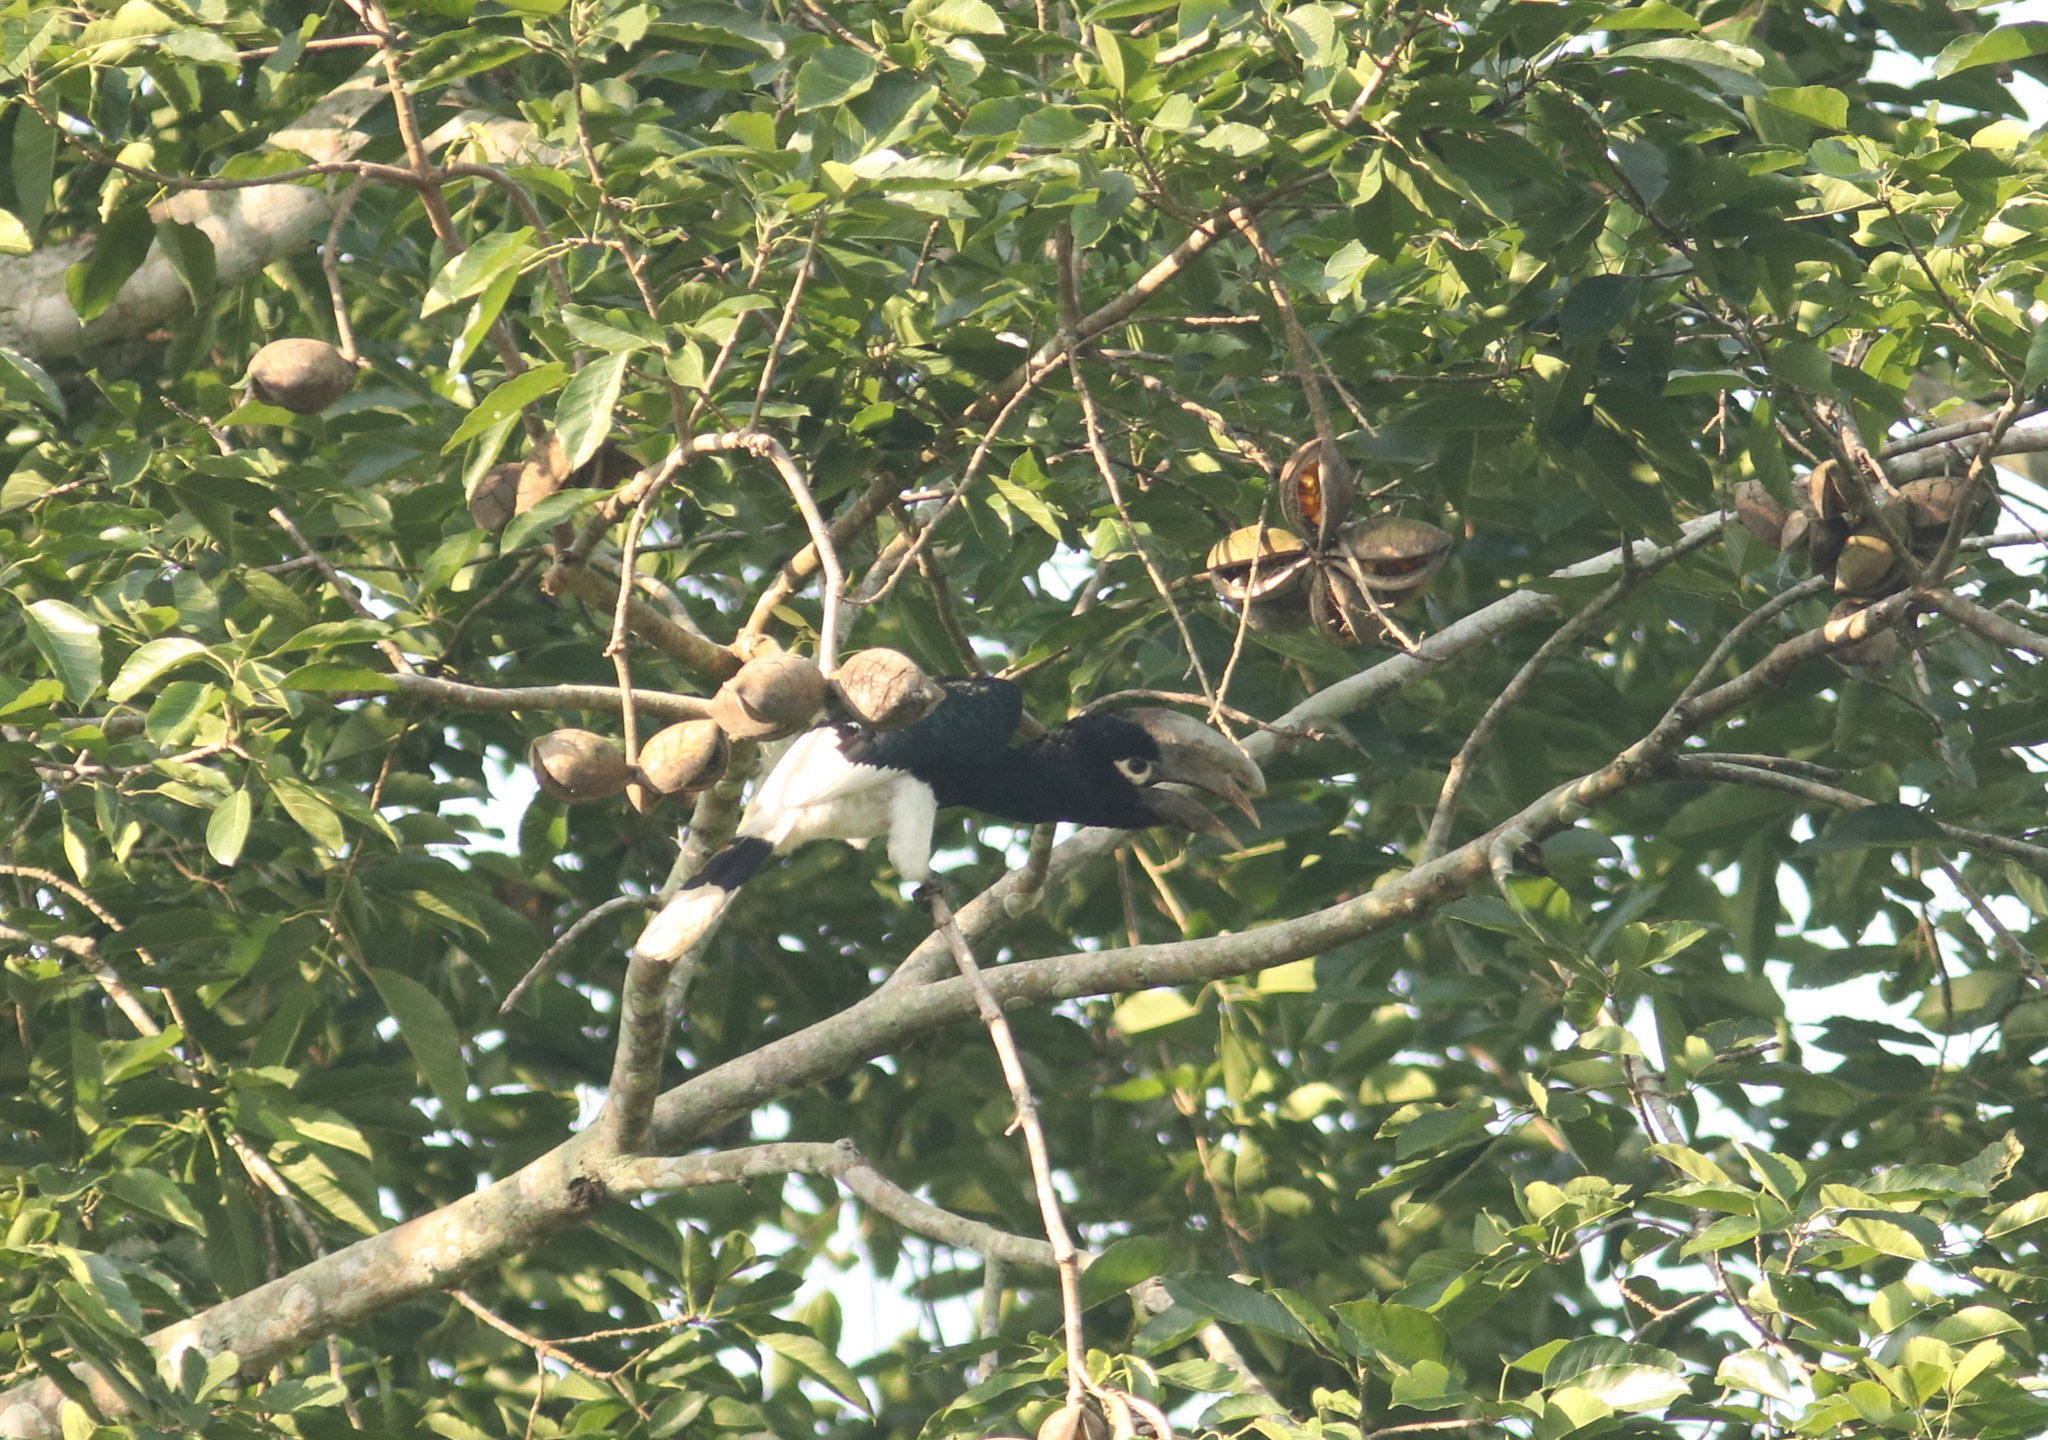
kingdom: Animalia
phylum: Chordata
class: Aves
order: Bucerotiformes
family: Bucerotidae
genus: Bycanistes
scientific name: Bycanistes albotibialis
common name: White-thighed hornbill
